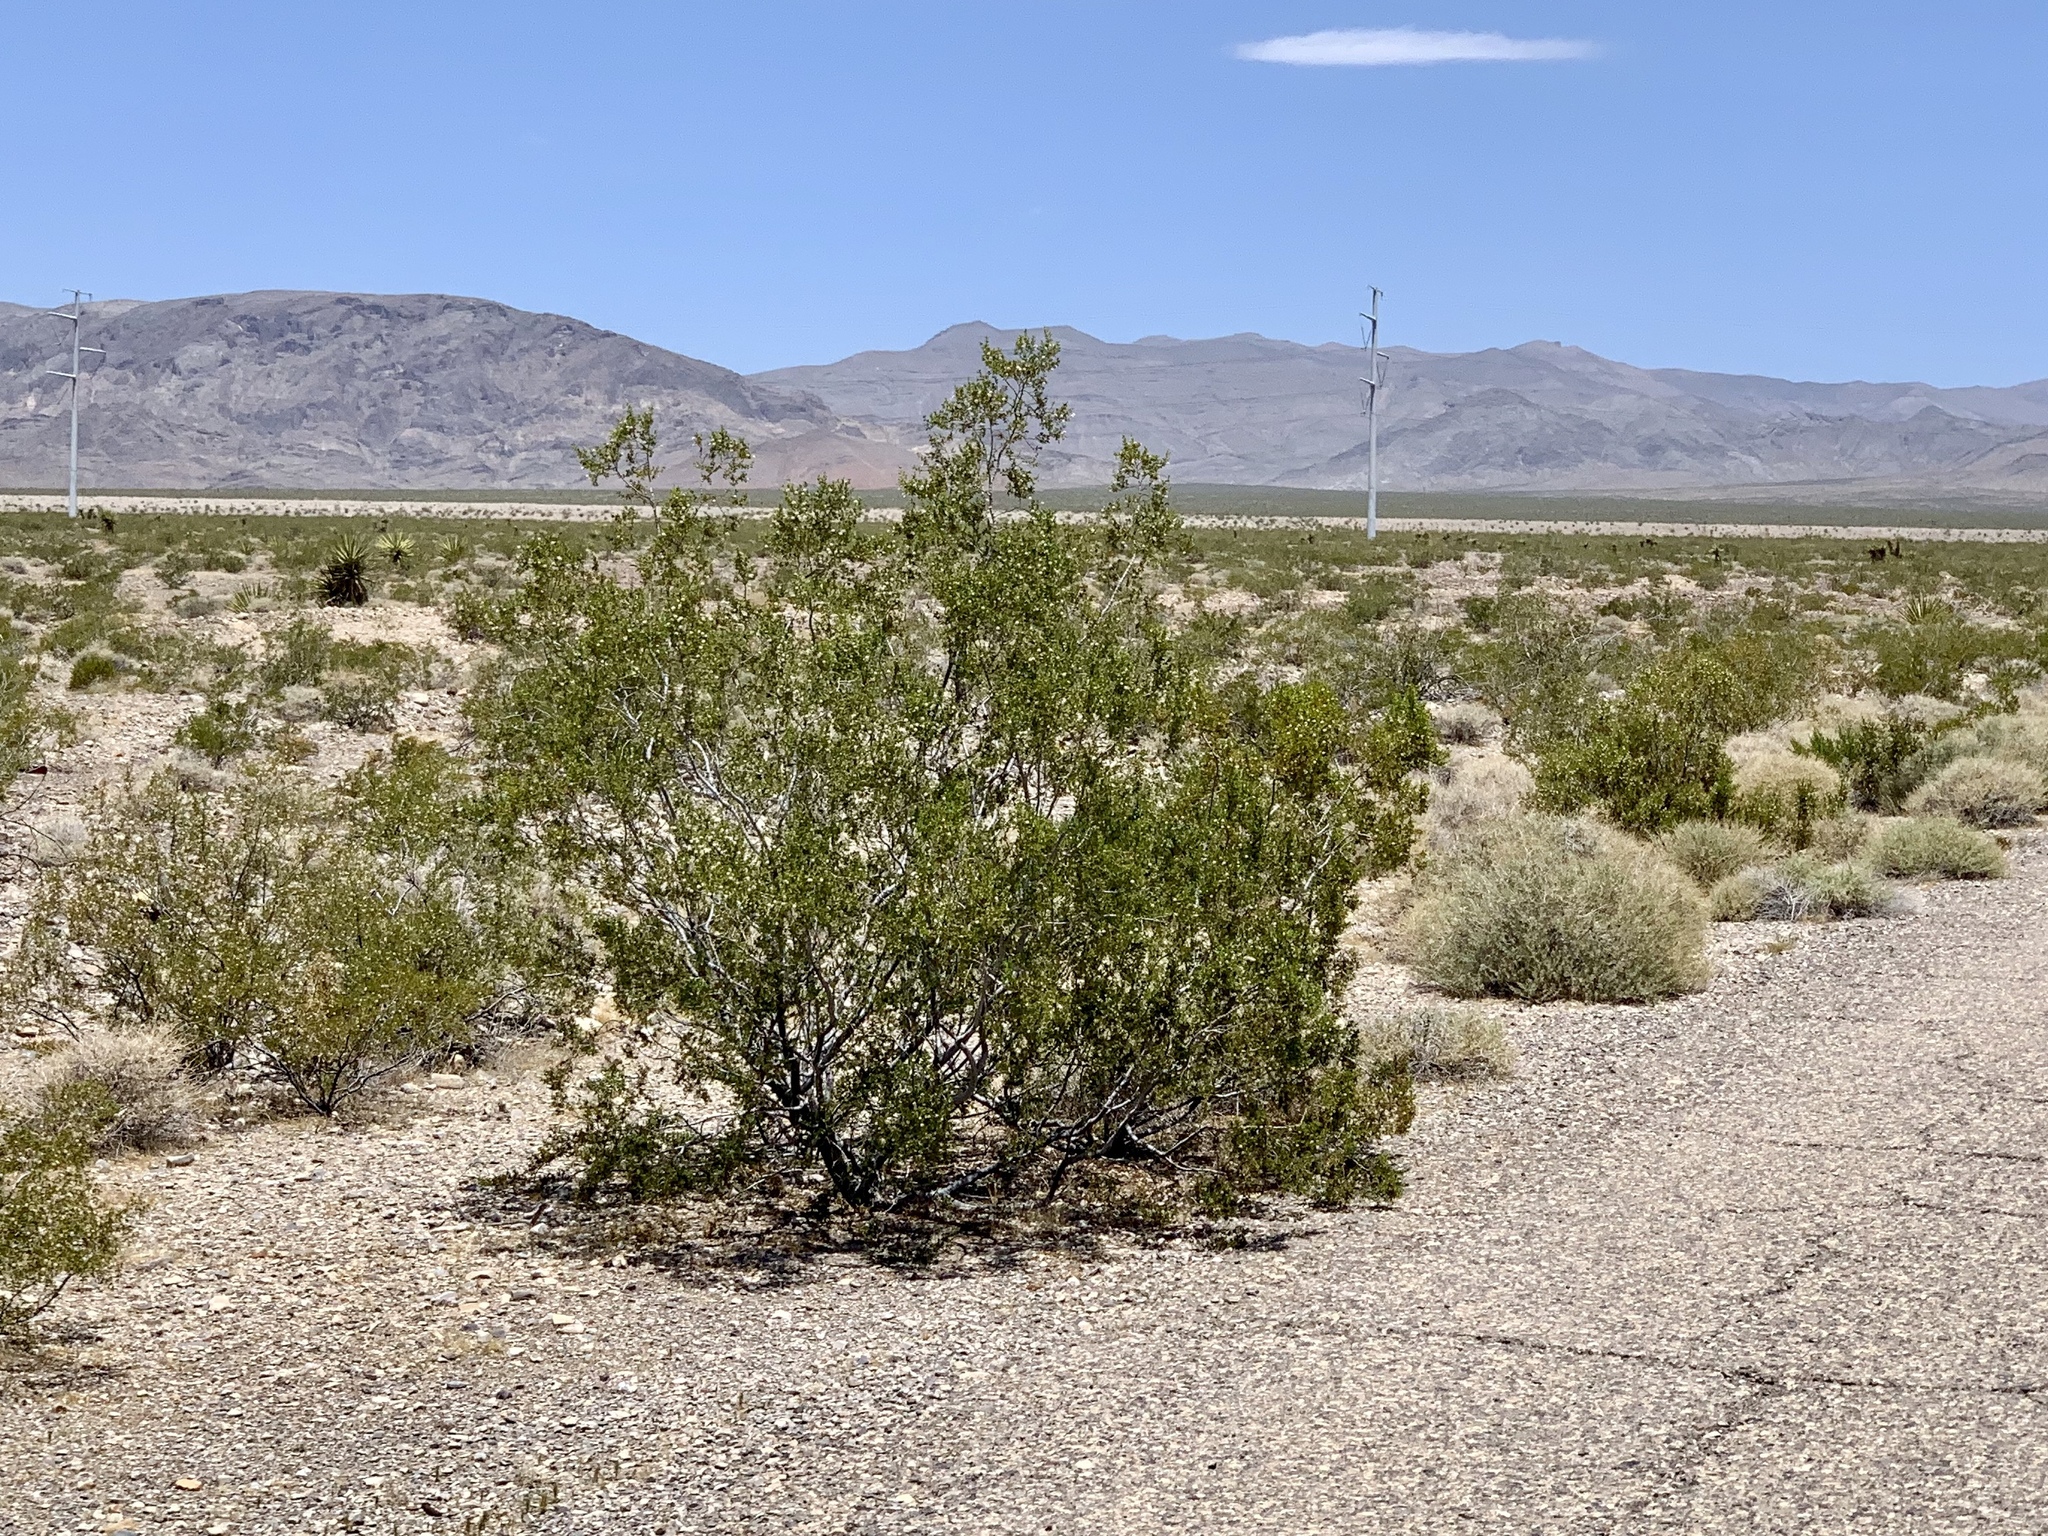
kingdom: Plantae
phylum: Tracheophyta
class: Magnoliopsida
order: Zygophyllales
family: Zygophyllaceae
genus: Larrea
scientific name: Larrea tridentata
